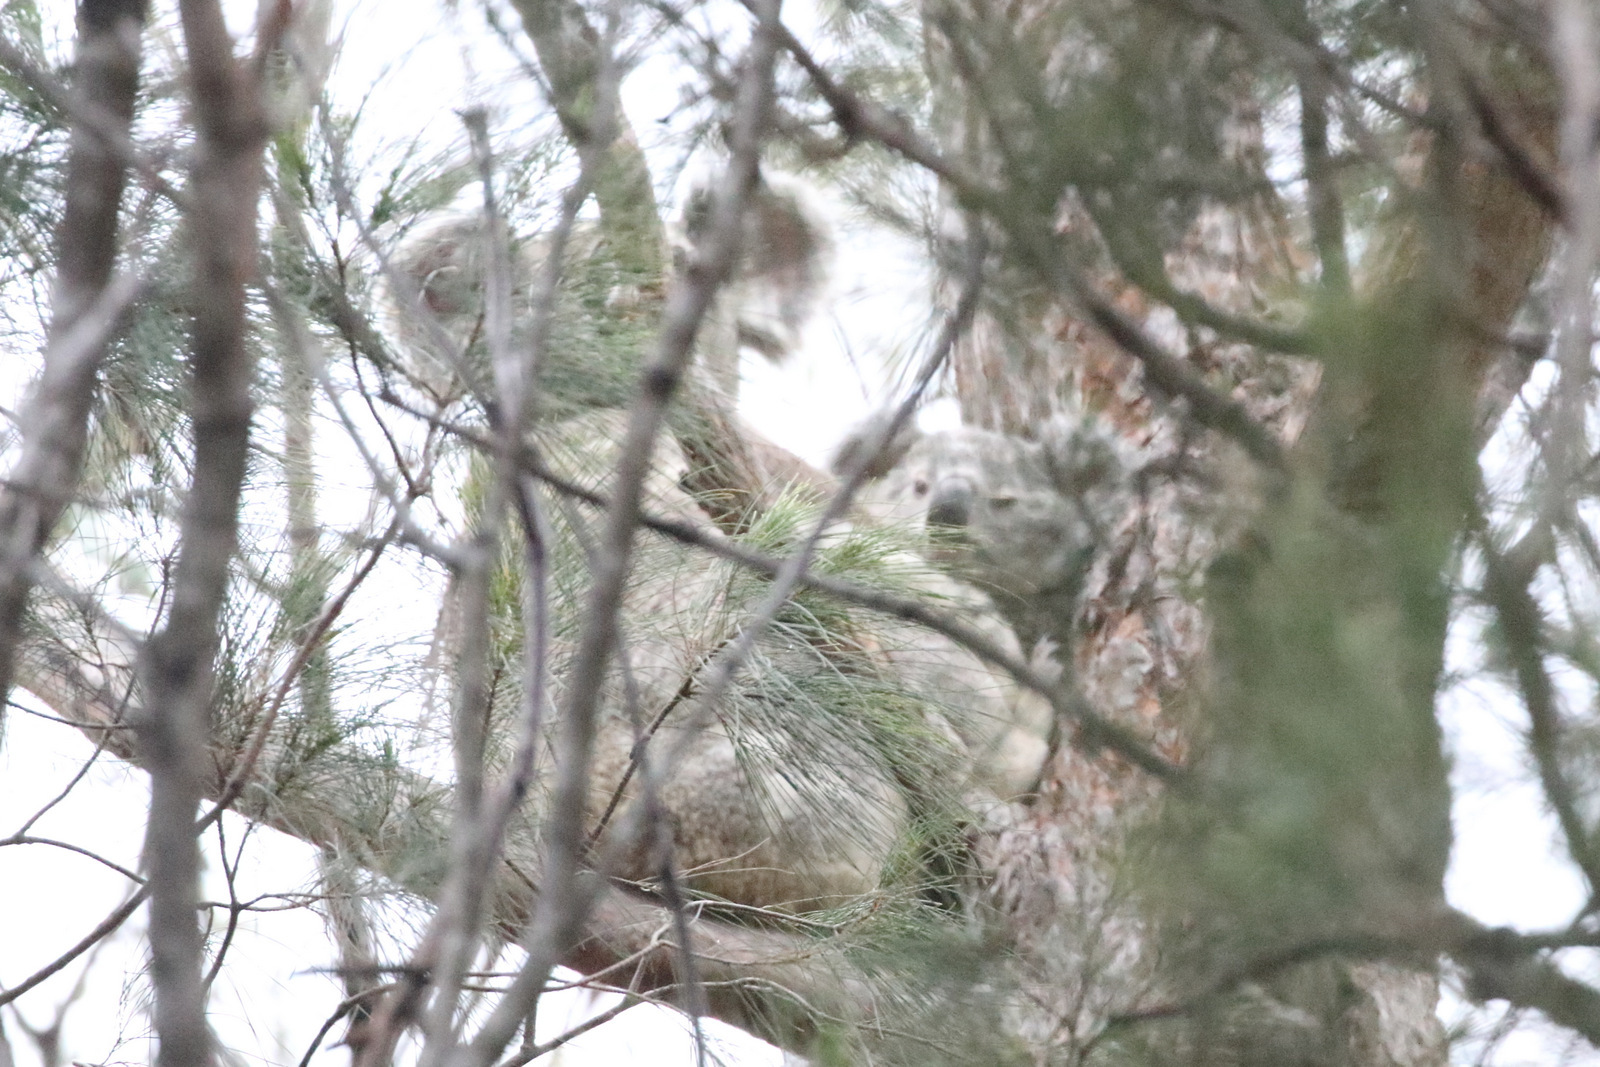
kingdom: Animalia
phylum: Chordata
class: Mammalia
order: Diprotodontia
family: Phascolarctidae
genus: Phascolarctos
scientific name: Phascolarctos cinereus
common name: Koala
